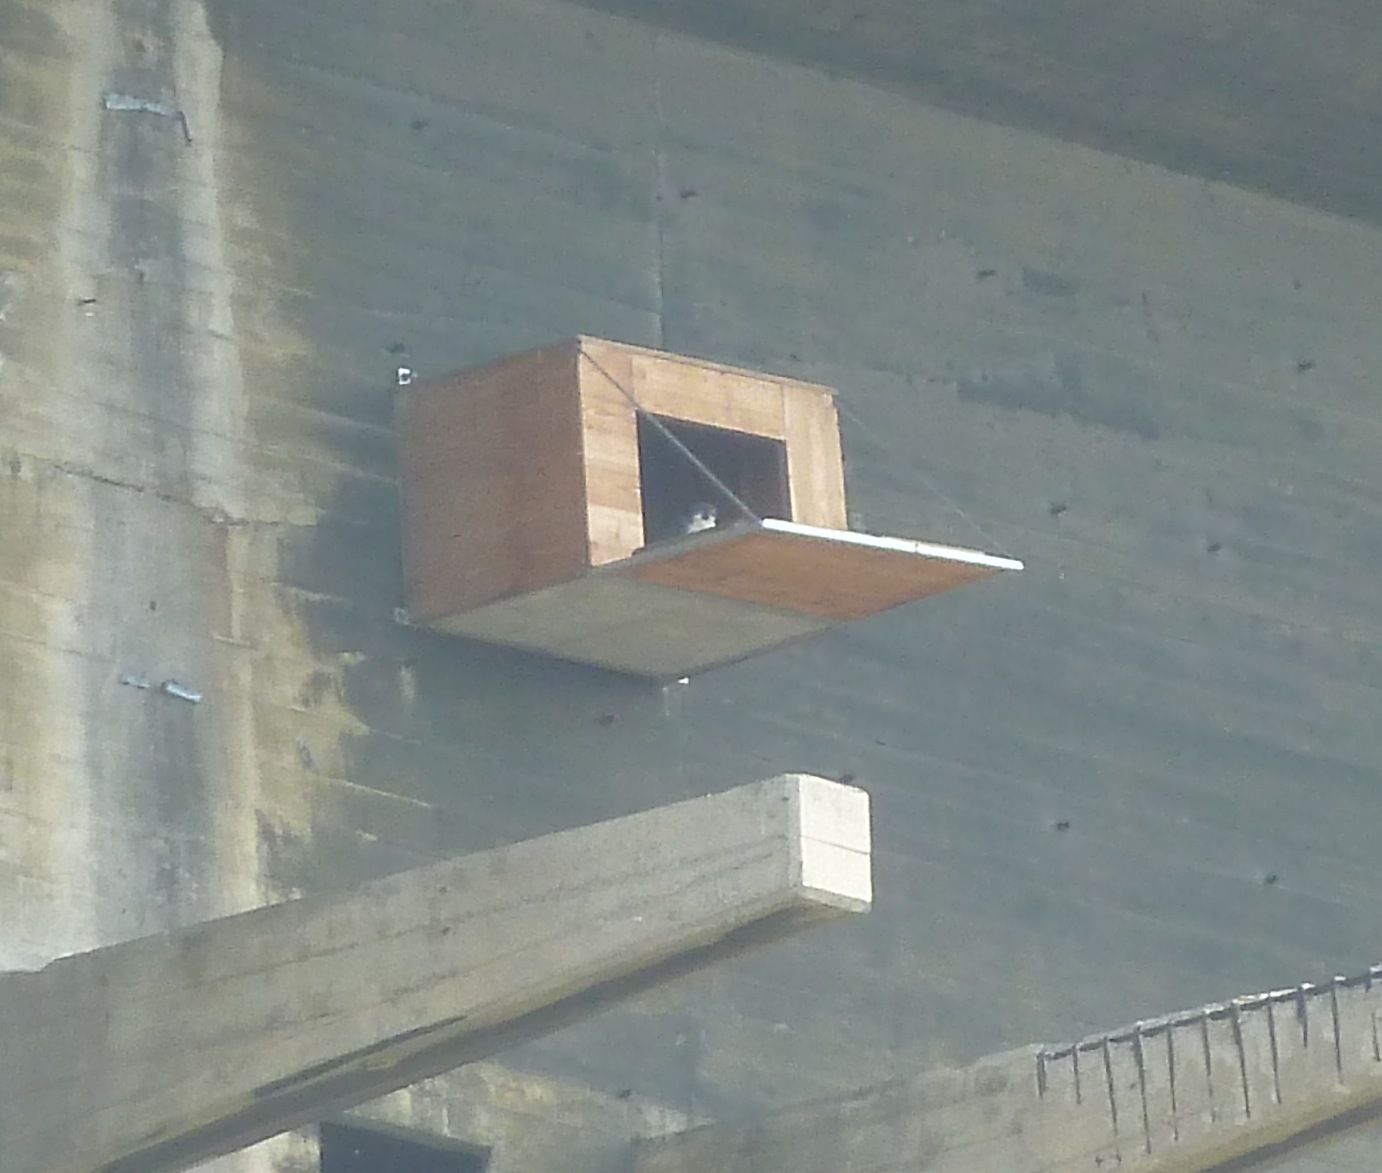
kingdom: Animalia
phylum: Chordata
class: Aves
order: Falconiformes
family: Falconidae
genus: Falco
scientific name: Falco peregrinus
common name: Peregrine falcon
